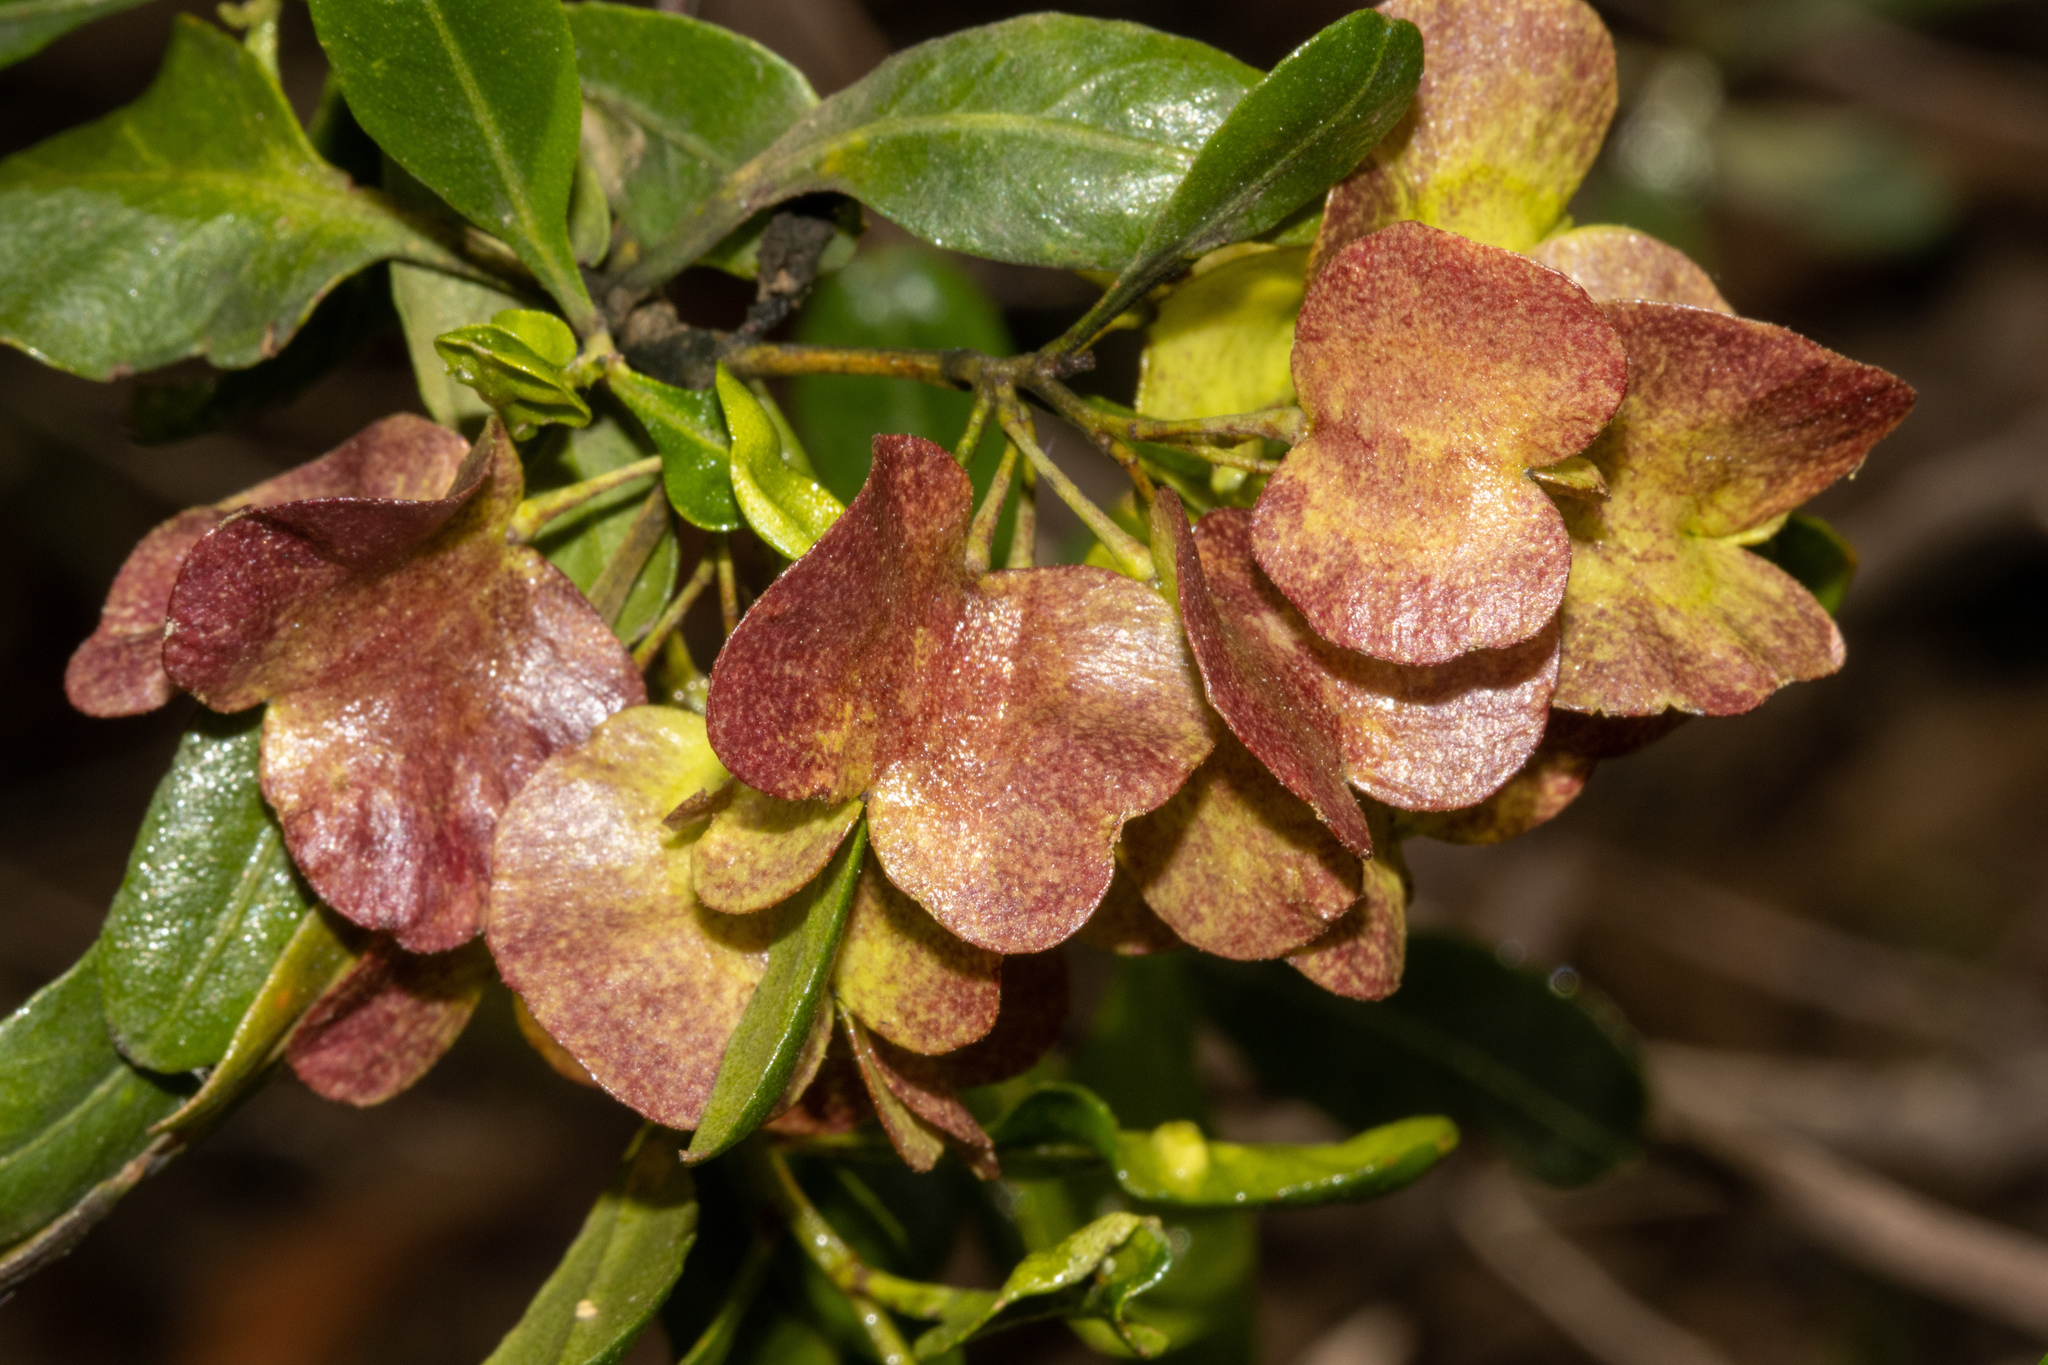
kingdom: Plantae
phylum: Tracheophyta
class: Magnoliopsida
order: Sapindales
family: Sapindaceae
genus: Dodonaea
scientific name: Dodonaea viscosa
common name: Hopbush
